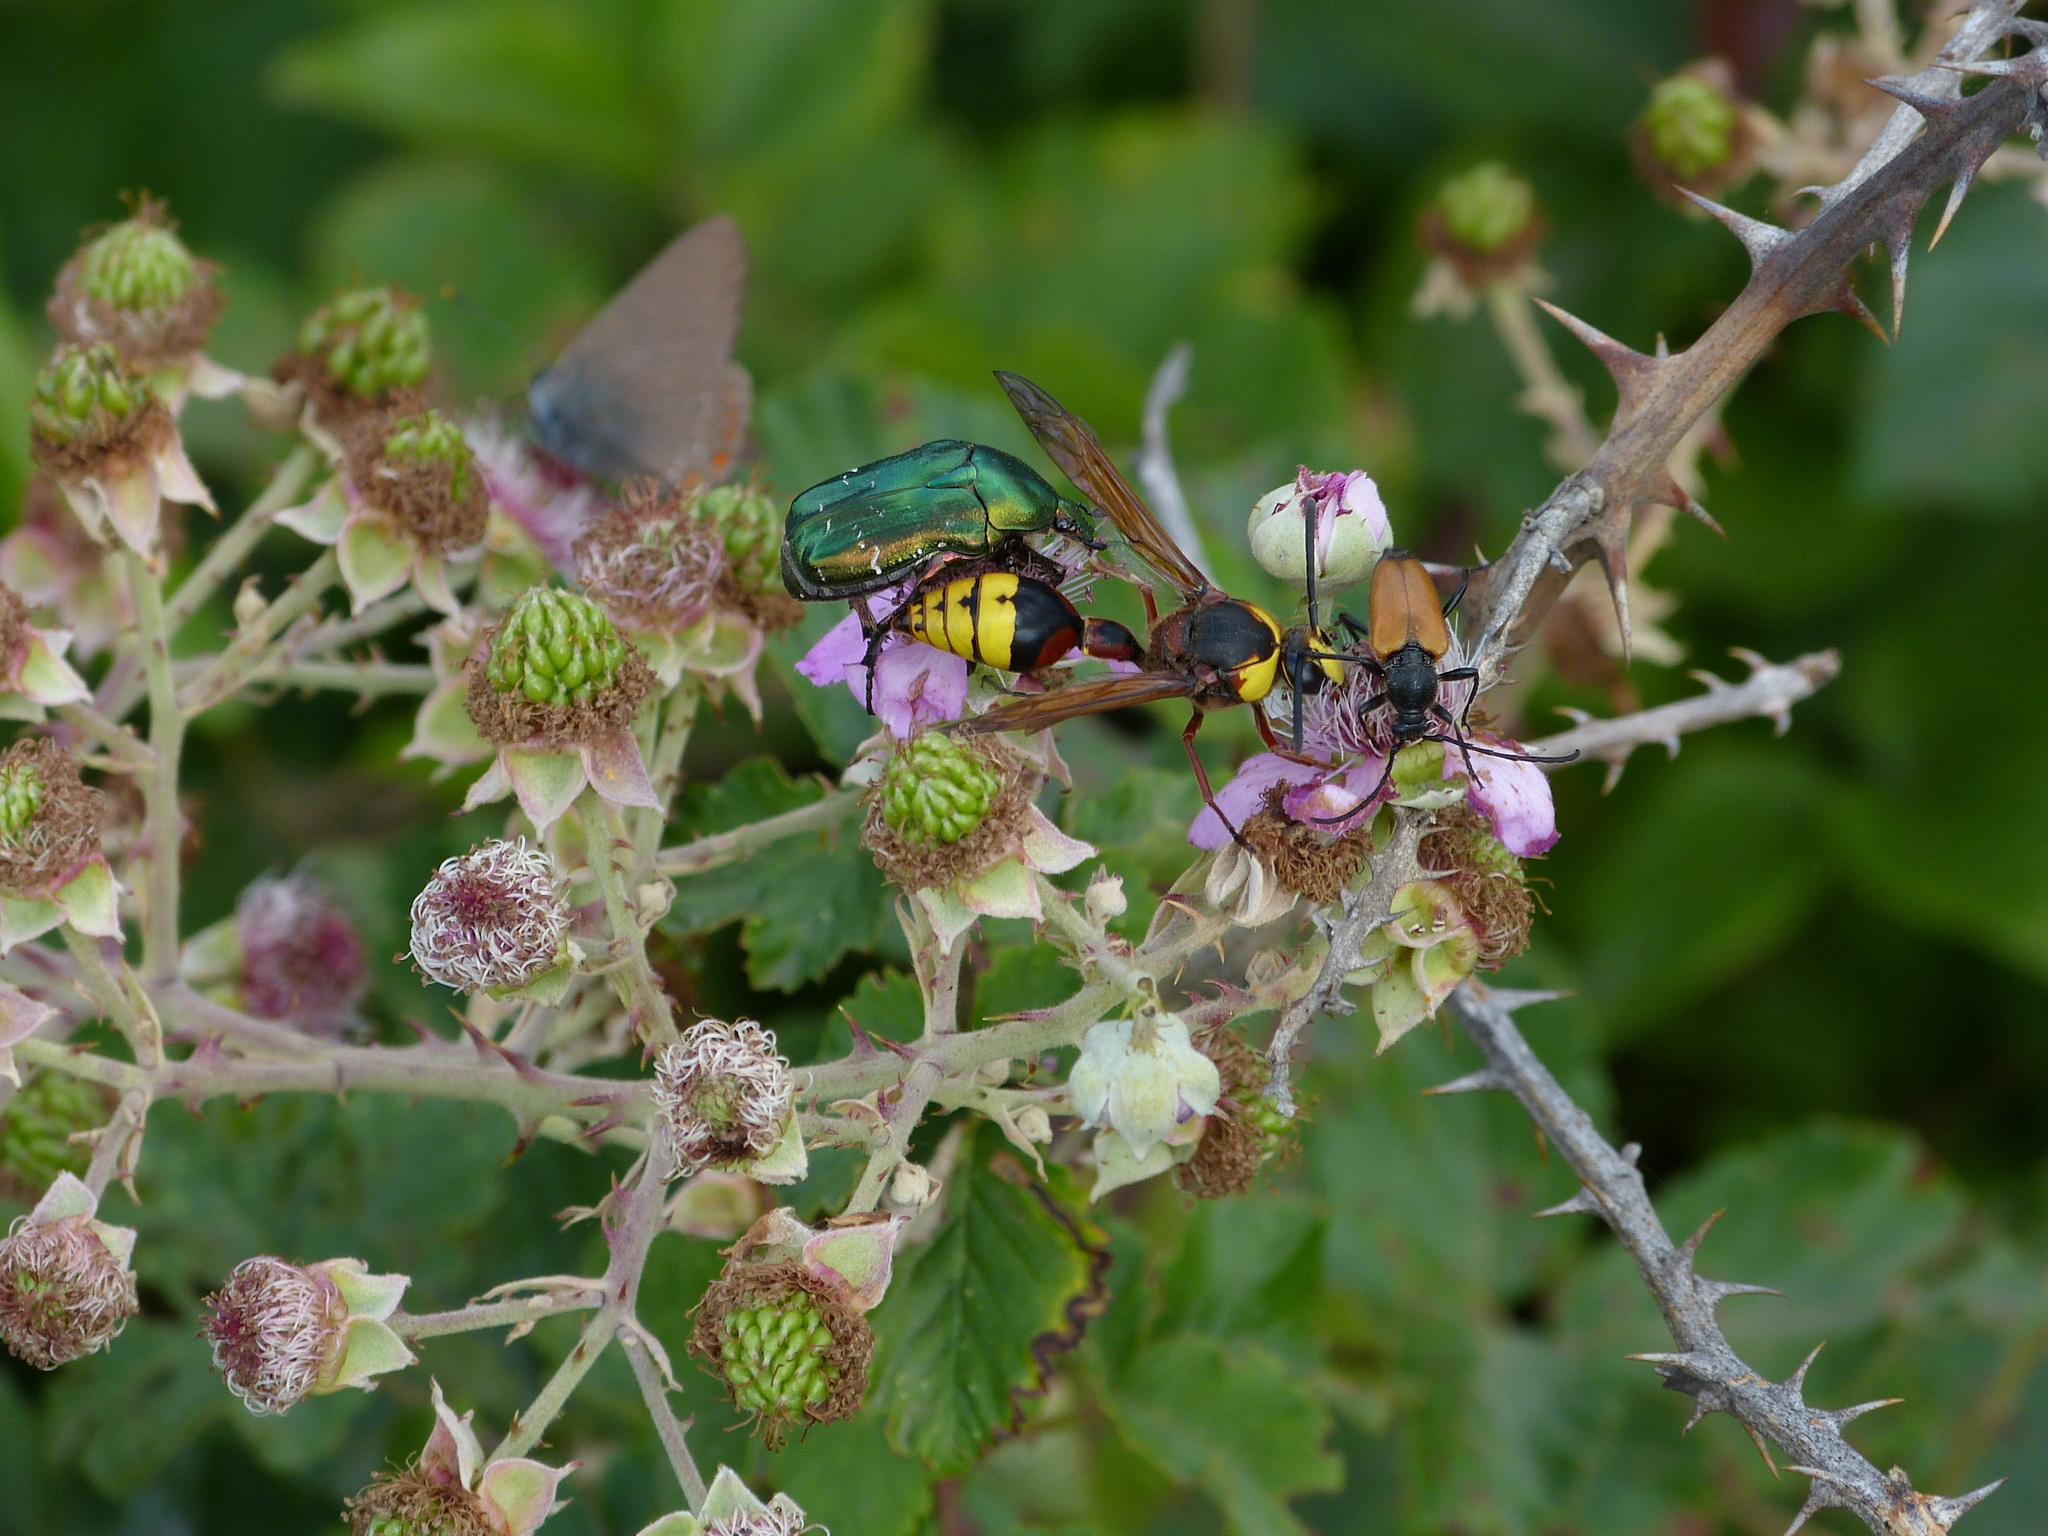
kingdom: Animalia
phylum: Arthropoda
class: Insecta
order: Hymenoptera
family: Eumenidae
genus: Delta
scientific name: Delta unguiculatum
